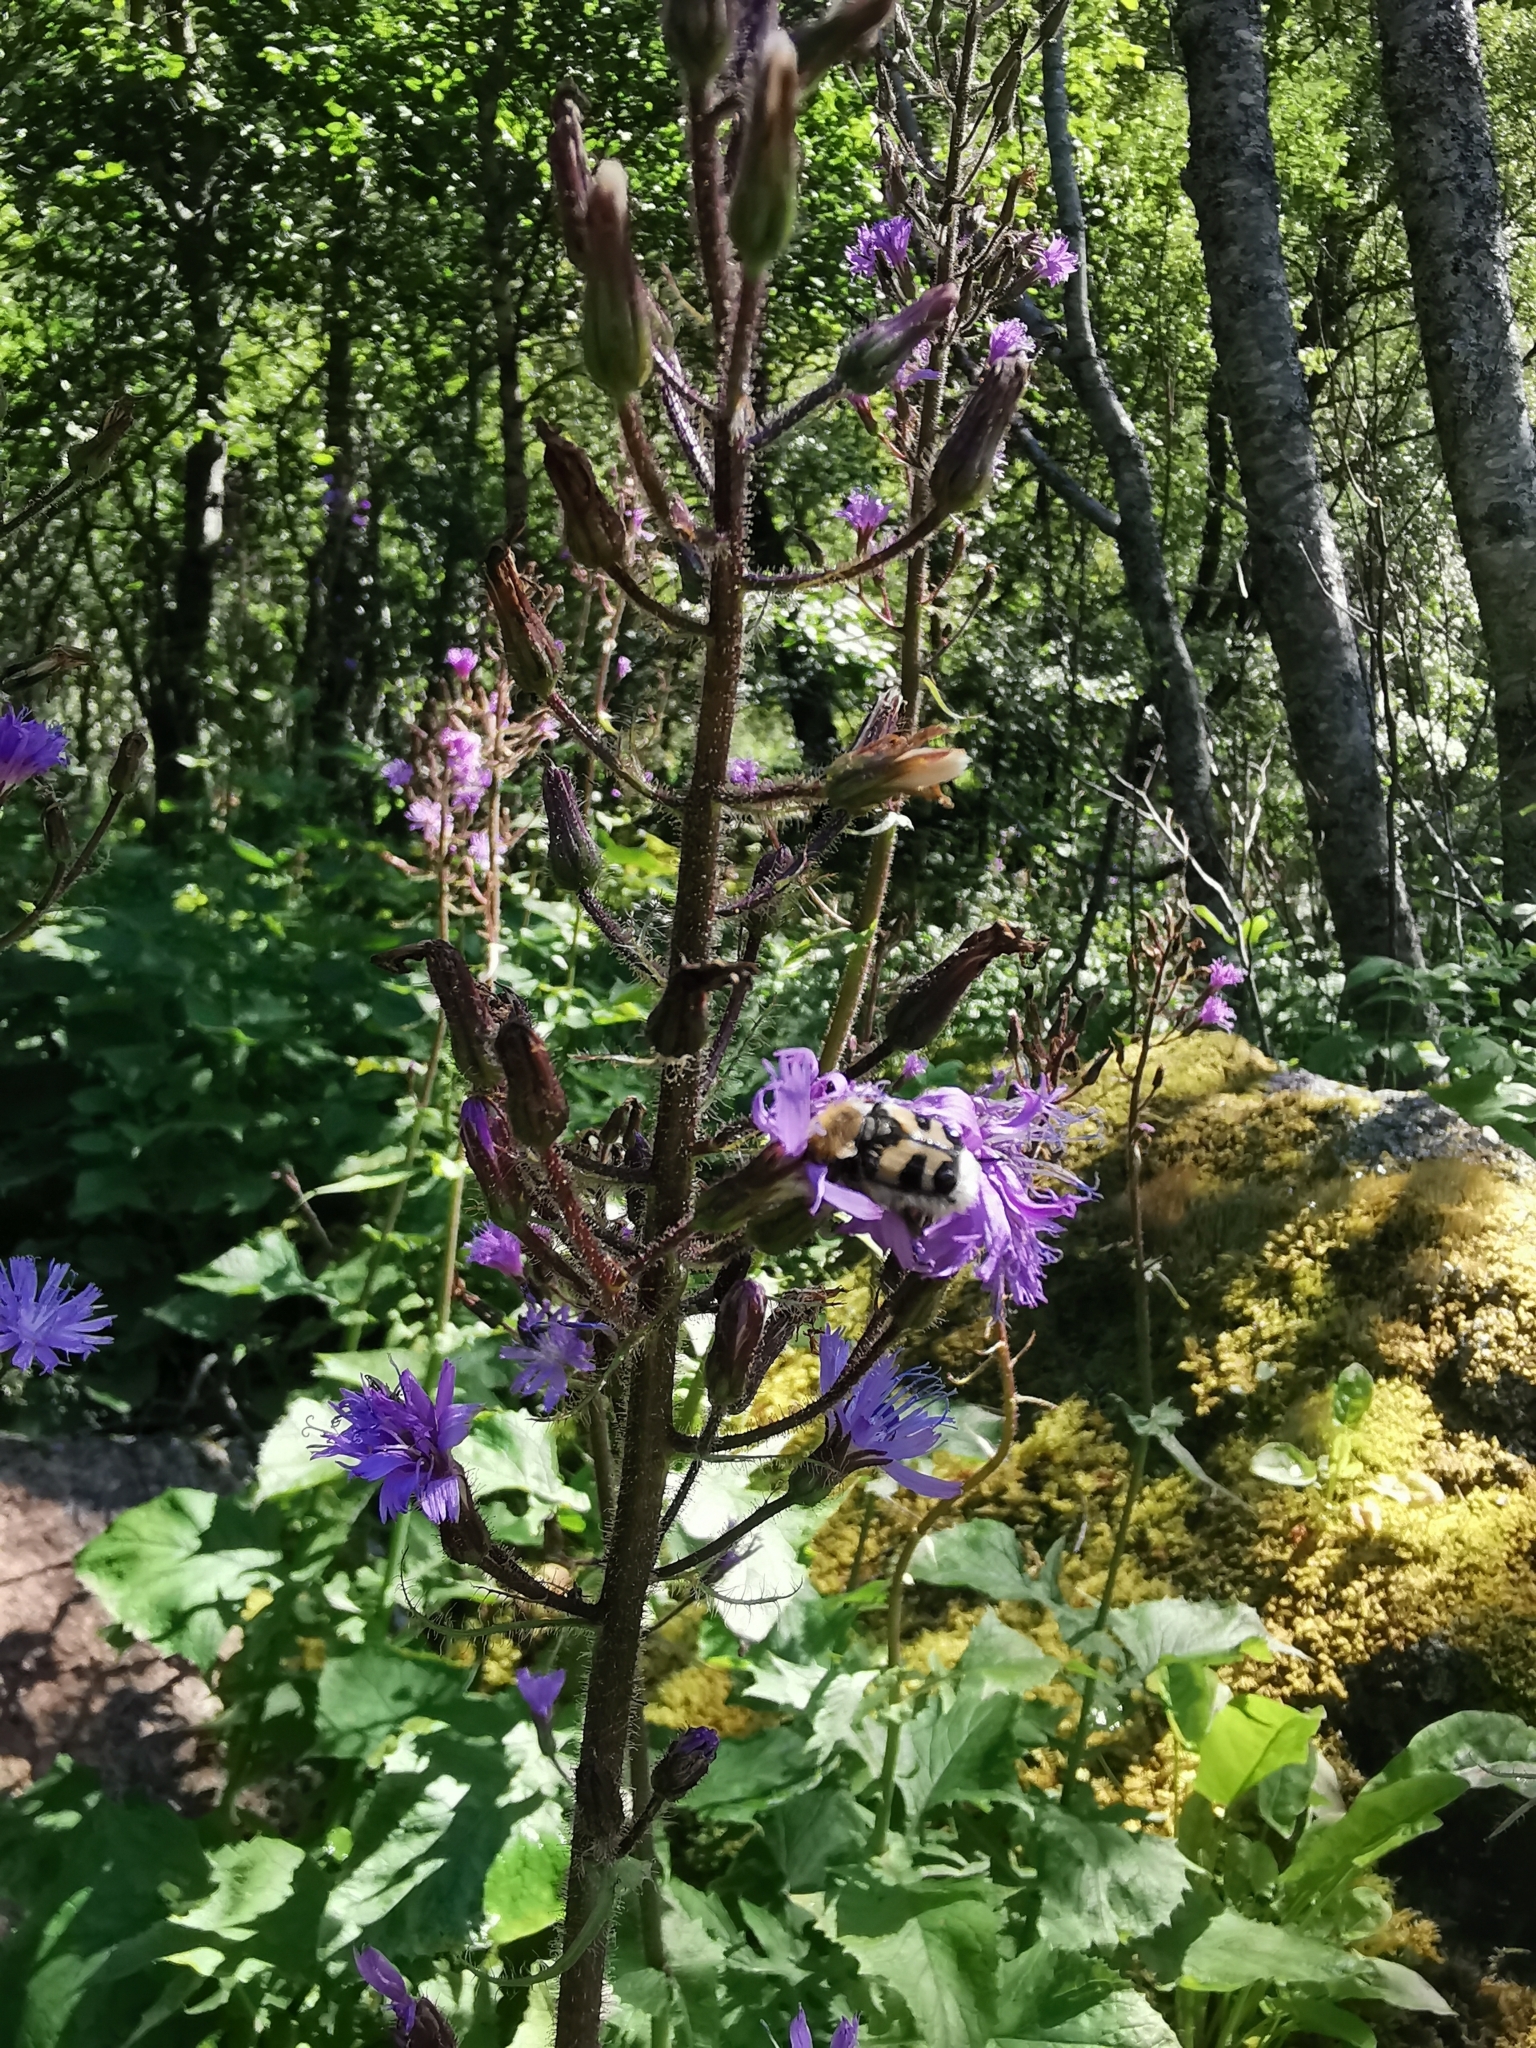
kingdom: Plantae
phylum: Tracheophyta
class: Magnoliopsida
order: Asterales
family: Asteraceae
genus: Cicerbita
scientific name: Cicerbita alpina
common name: Alpine blue-sow-thistle
